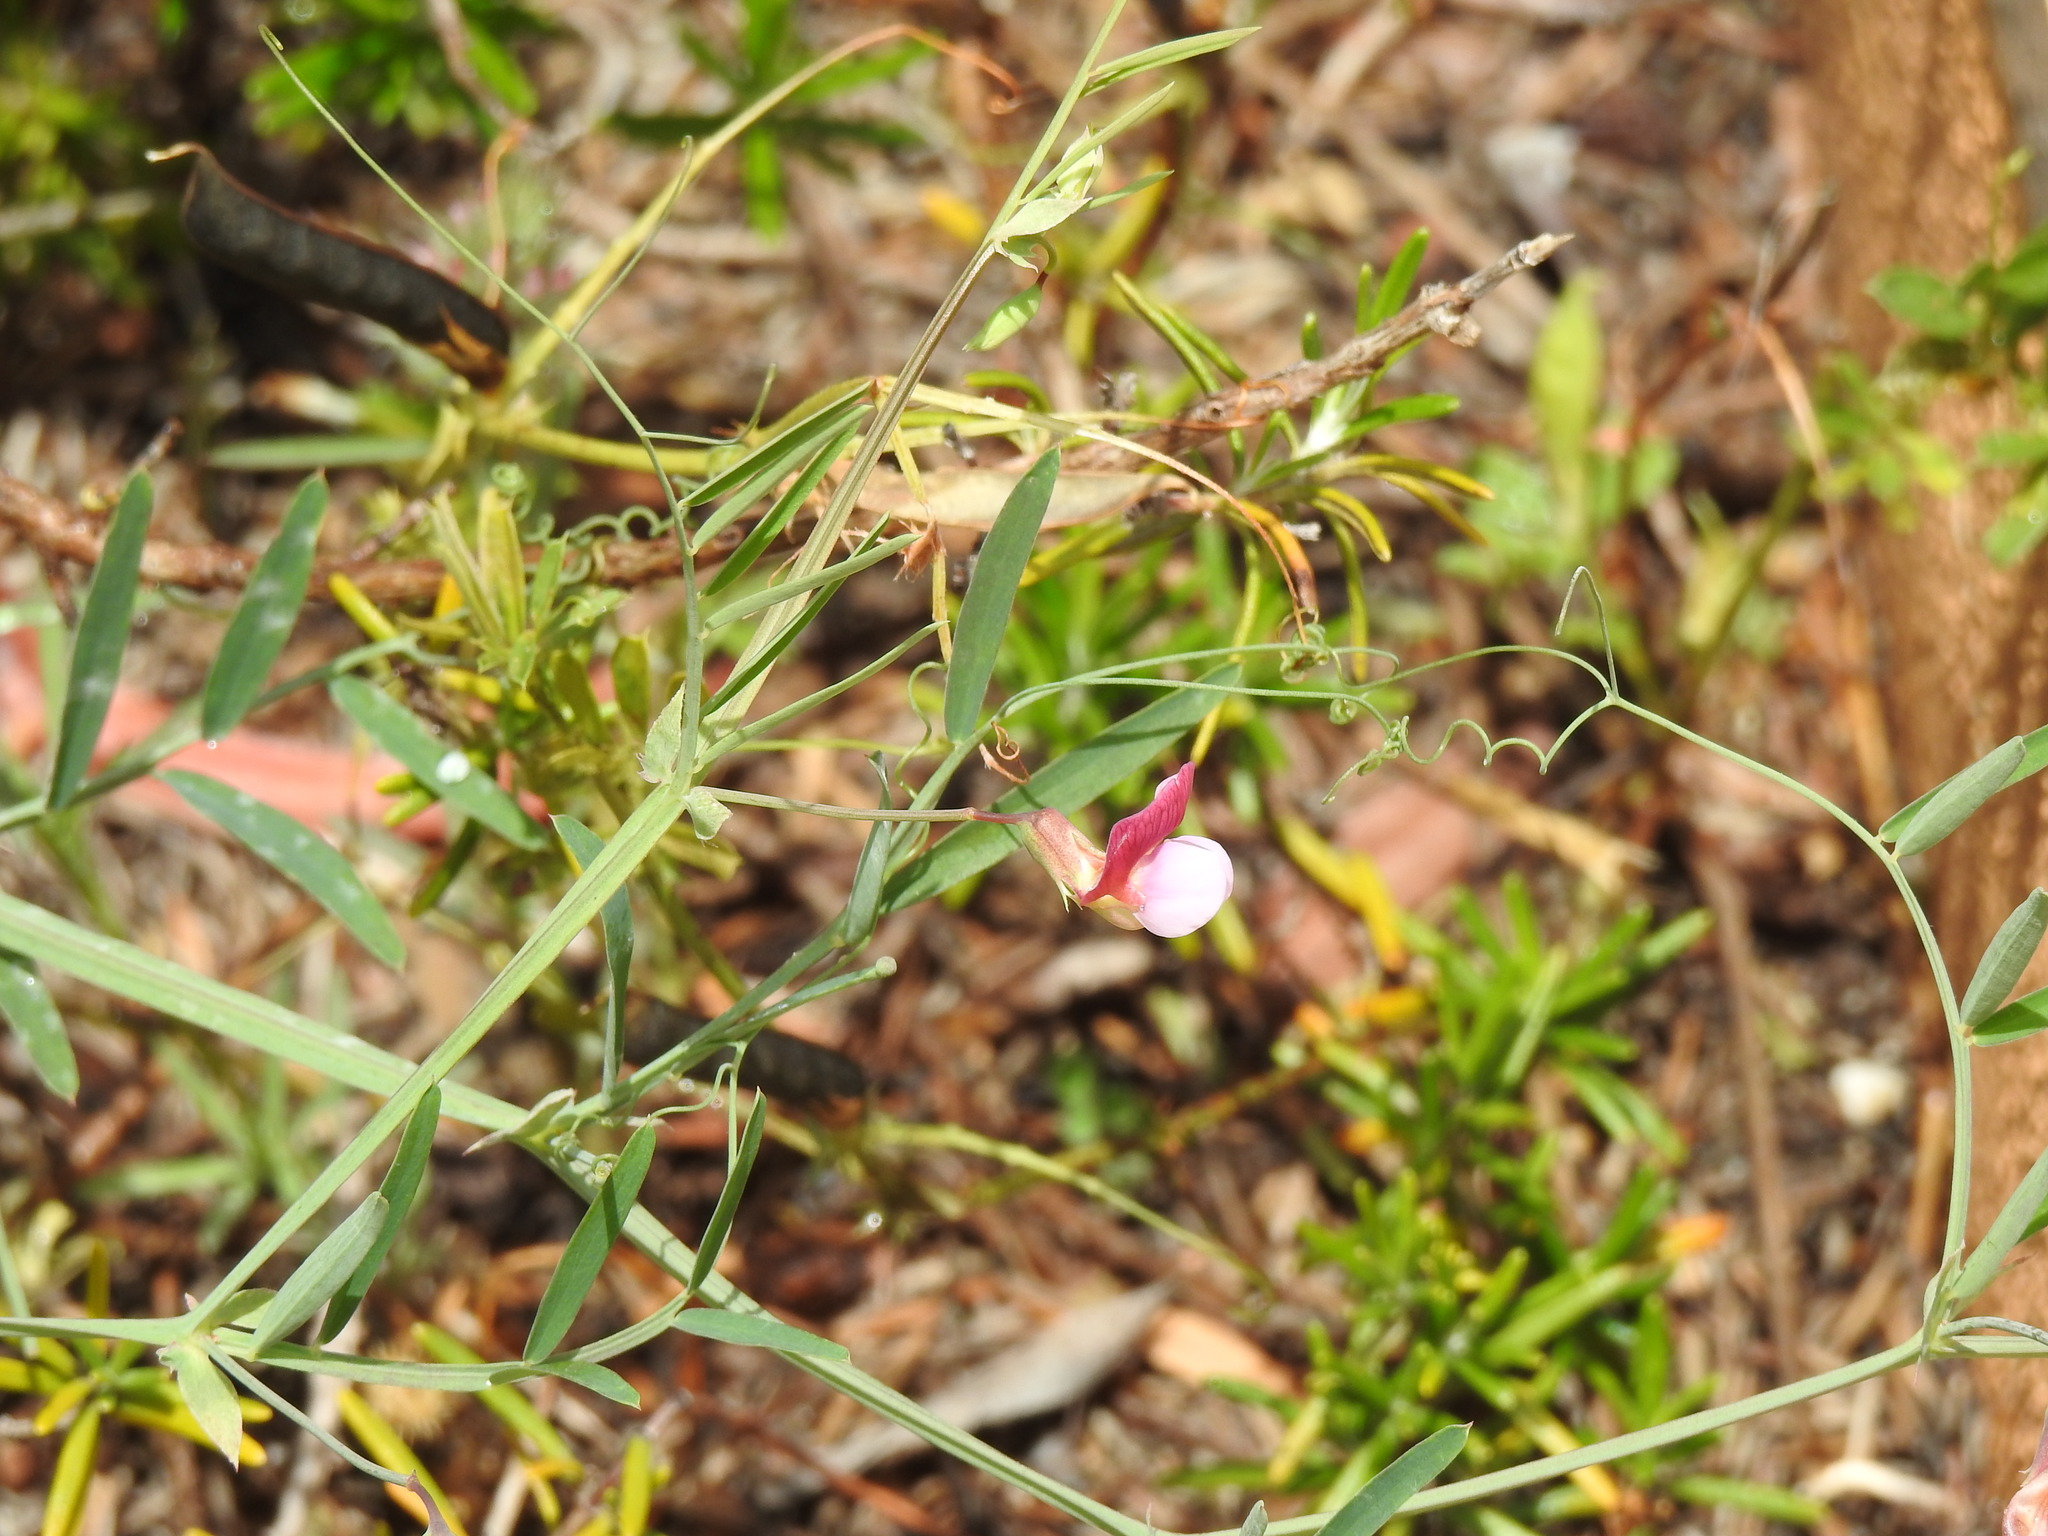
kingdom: Plantae
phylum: Tracheophyta
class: Magnoliopsida
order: Fabales
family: Fabaceae
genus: Lathyrus
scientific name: Lathyrus clymenum
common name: Spanish vetchling
